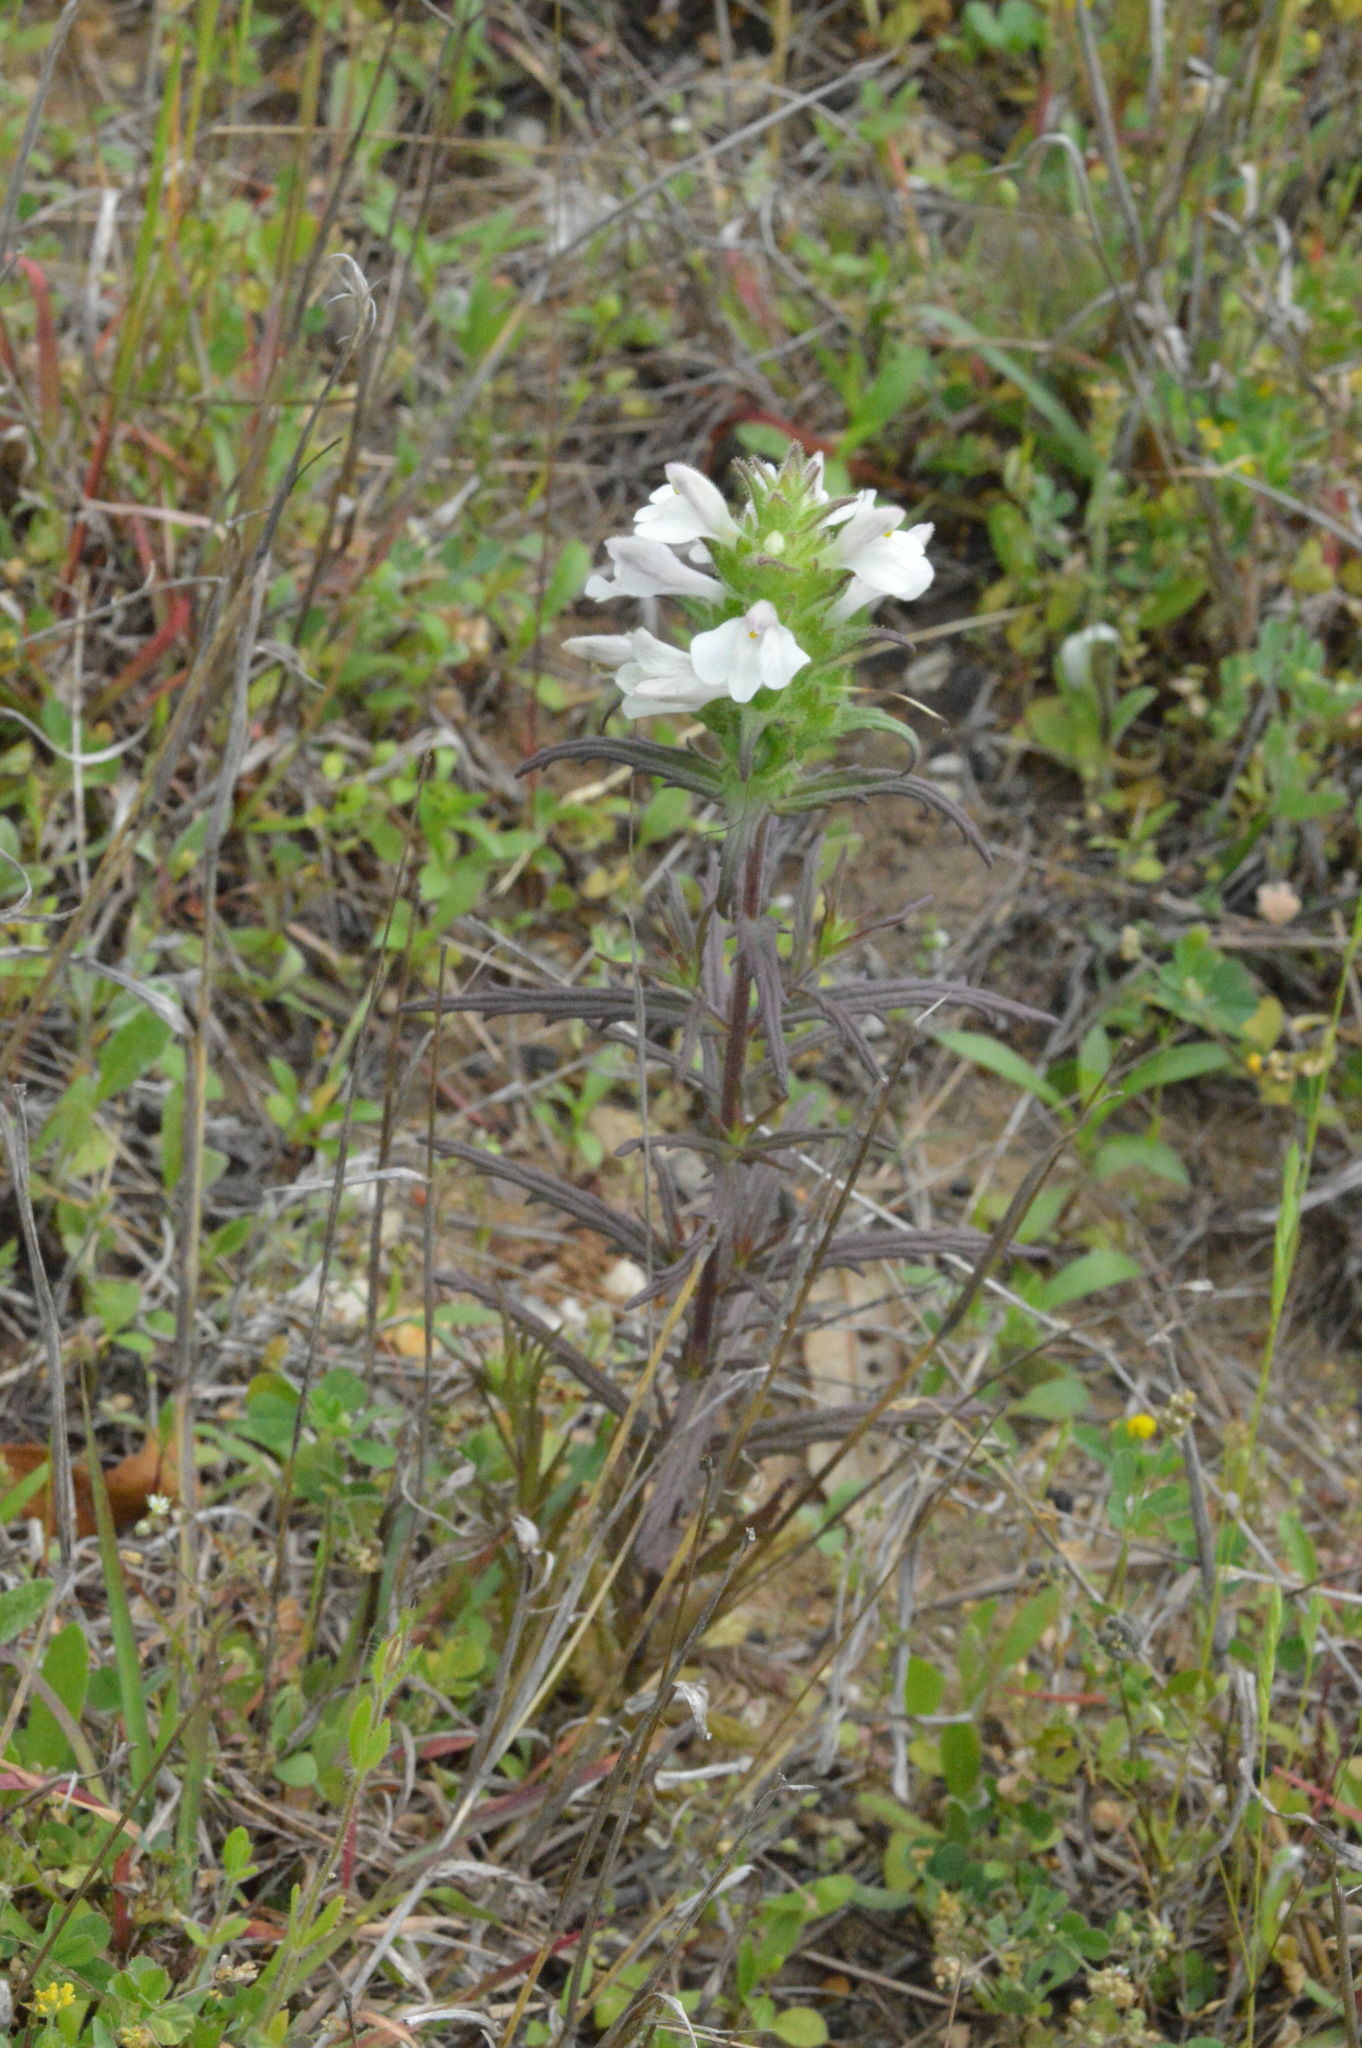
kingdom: Plantae
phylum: Tracheophyta
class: Magnoliopsida
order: Lamiales
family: Orobanchaceae
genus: Bellardia
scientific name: Bellardia trixago
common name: Mediterranean lineseed
